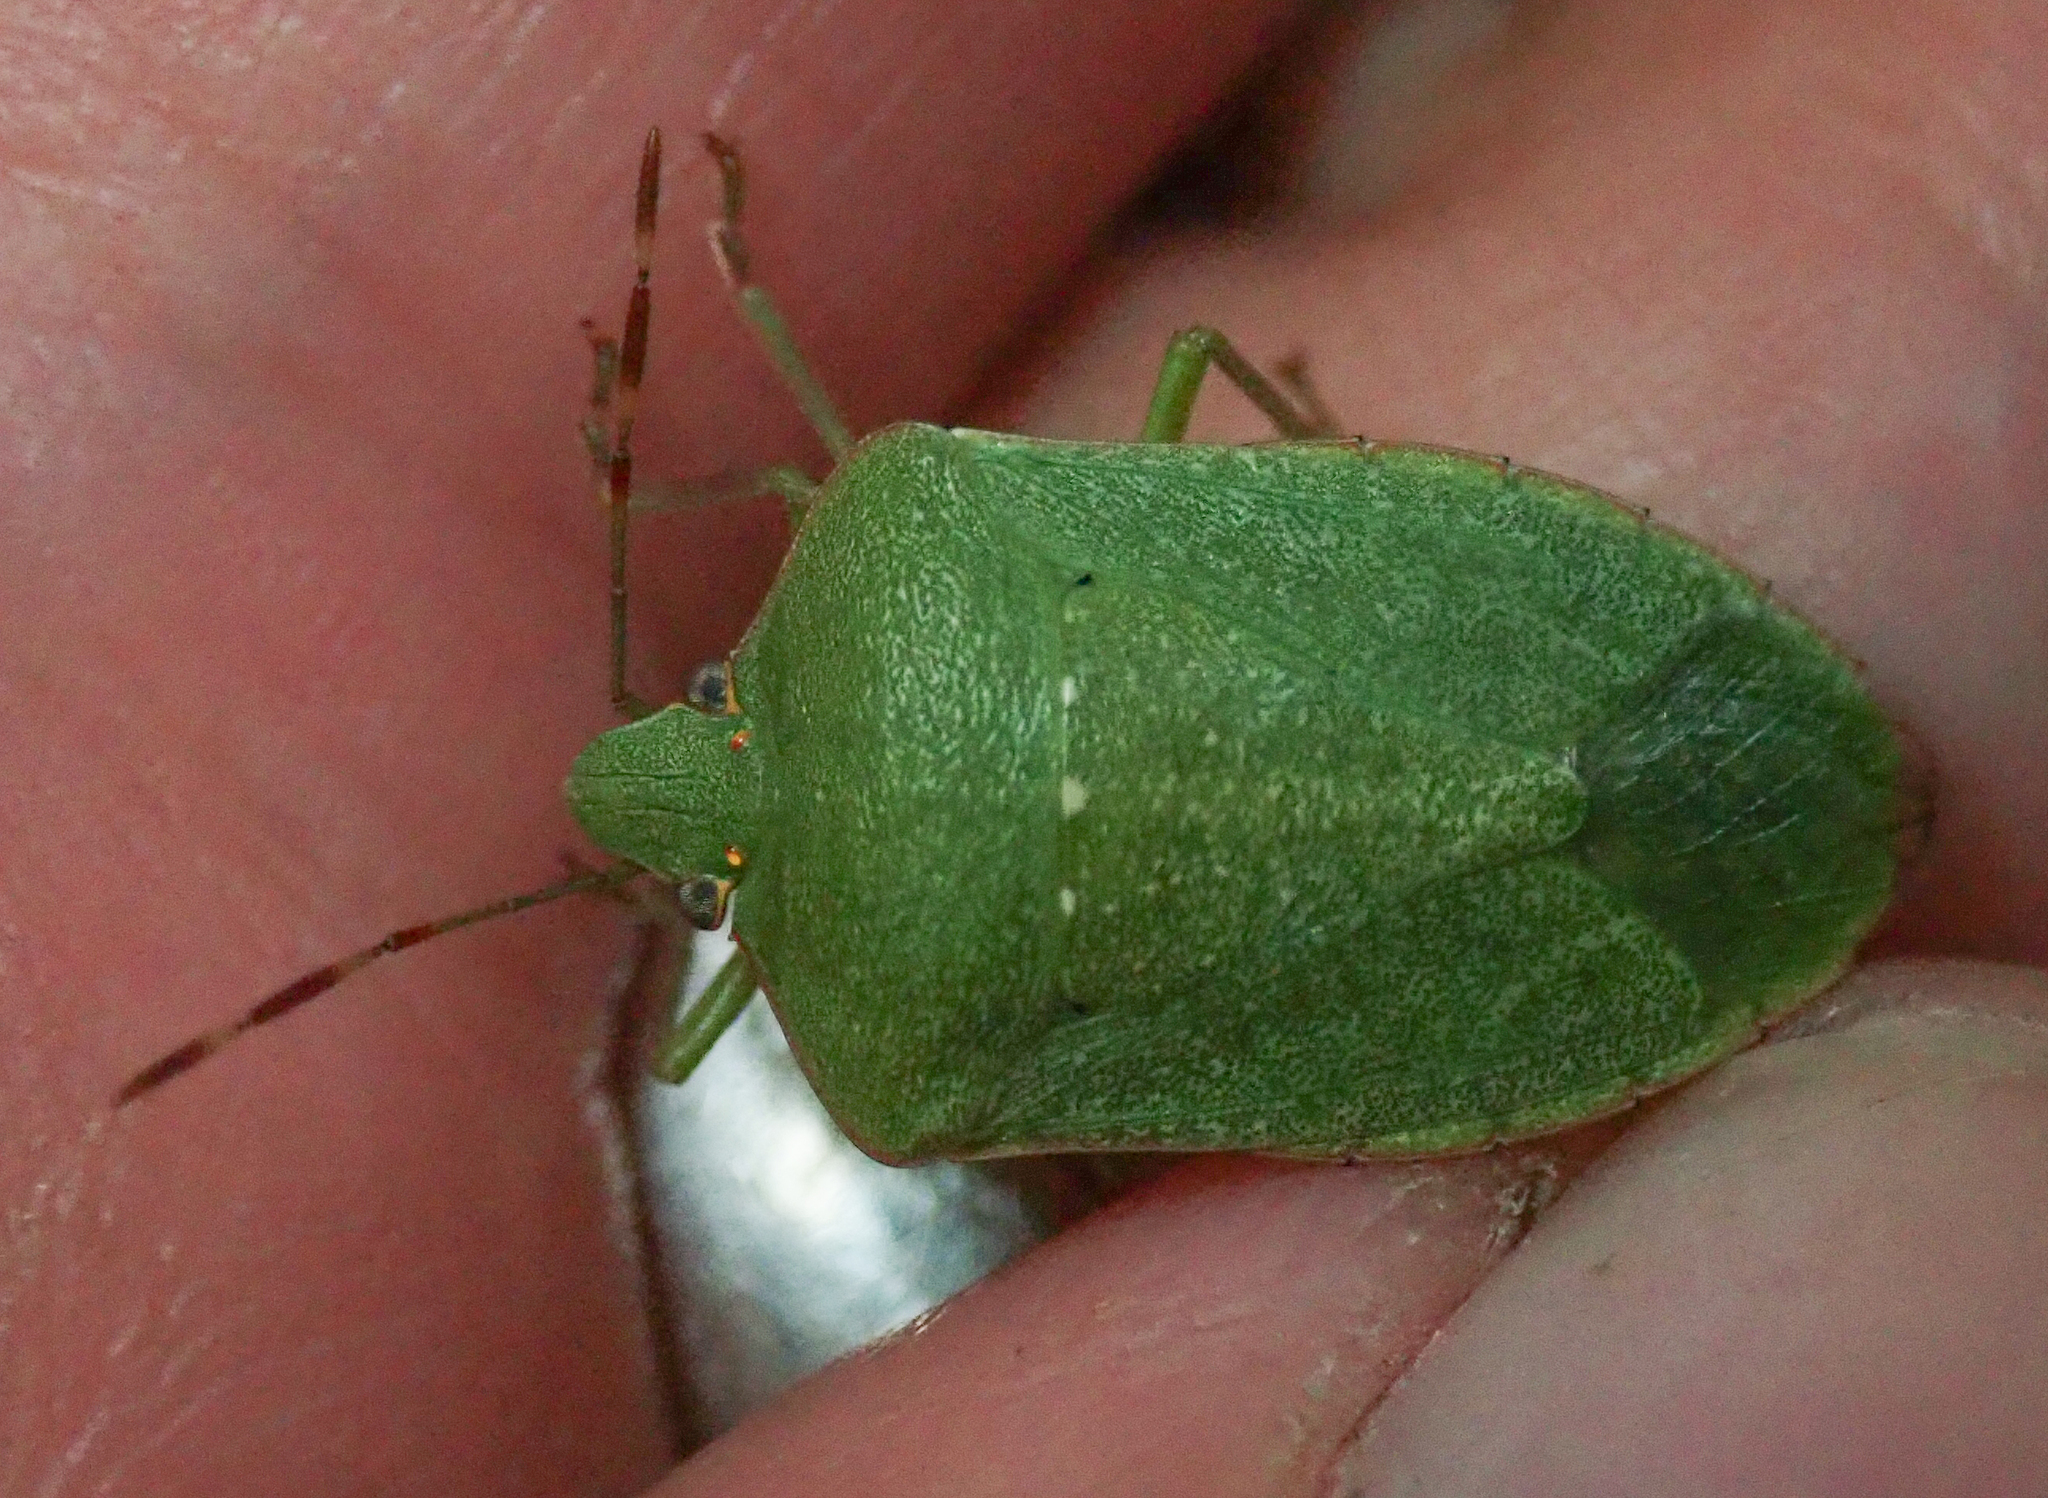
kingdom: Animalia
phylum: Arthropoda
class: Insecta
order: Hemiptera
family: Pentatomidae
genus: Nezara
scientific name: Nezara viridula
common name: Southern green stink bug
